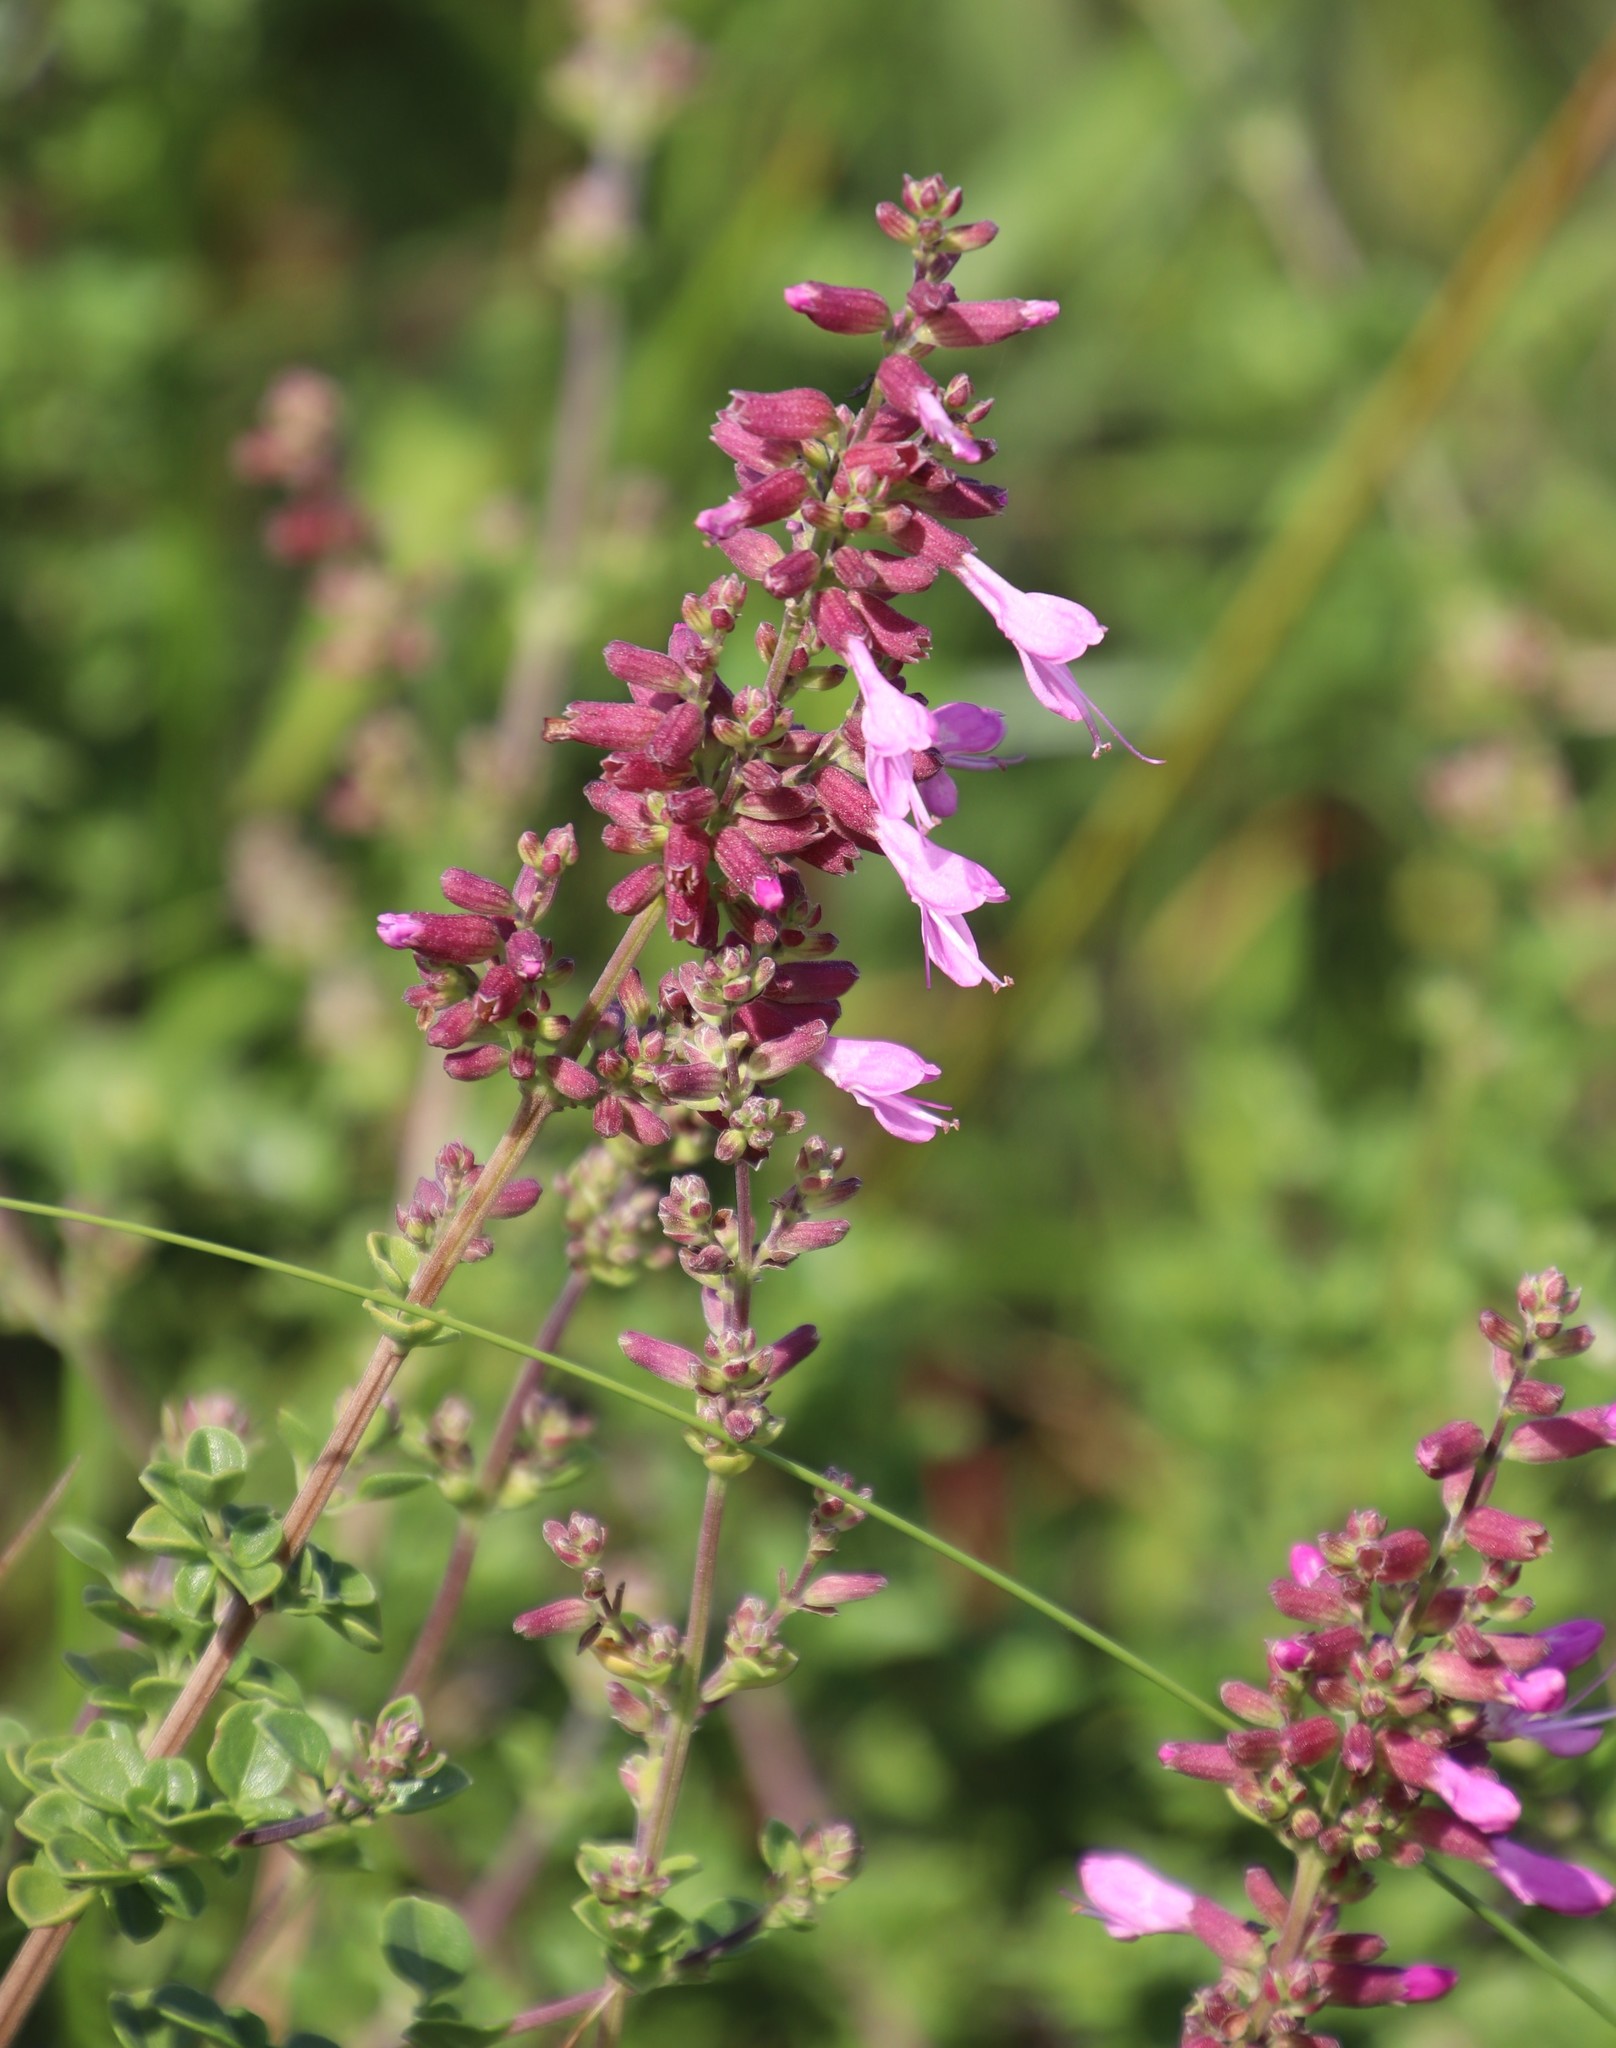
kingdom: Plantae
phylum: Tracheophyta
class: Magnoliopsida
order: Lamiales
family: Lamiaceae
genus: Syncolostemon
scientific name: Syncolostemon rotundifolius
